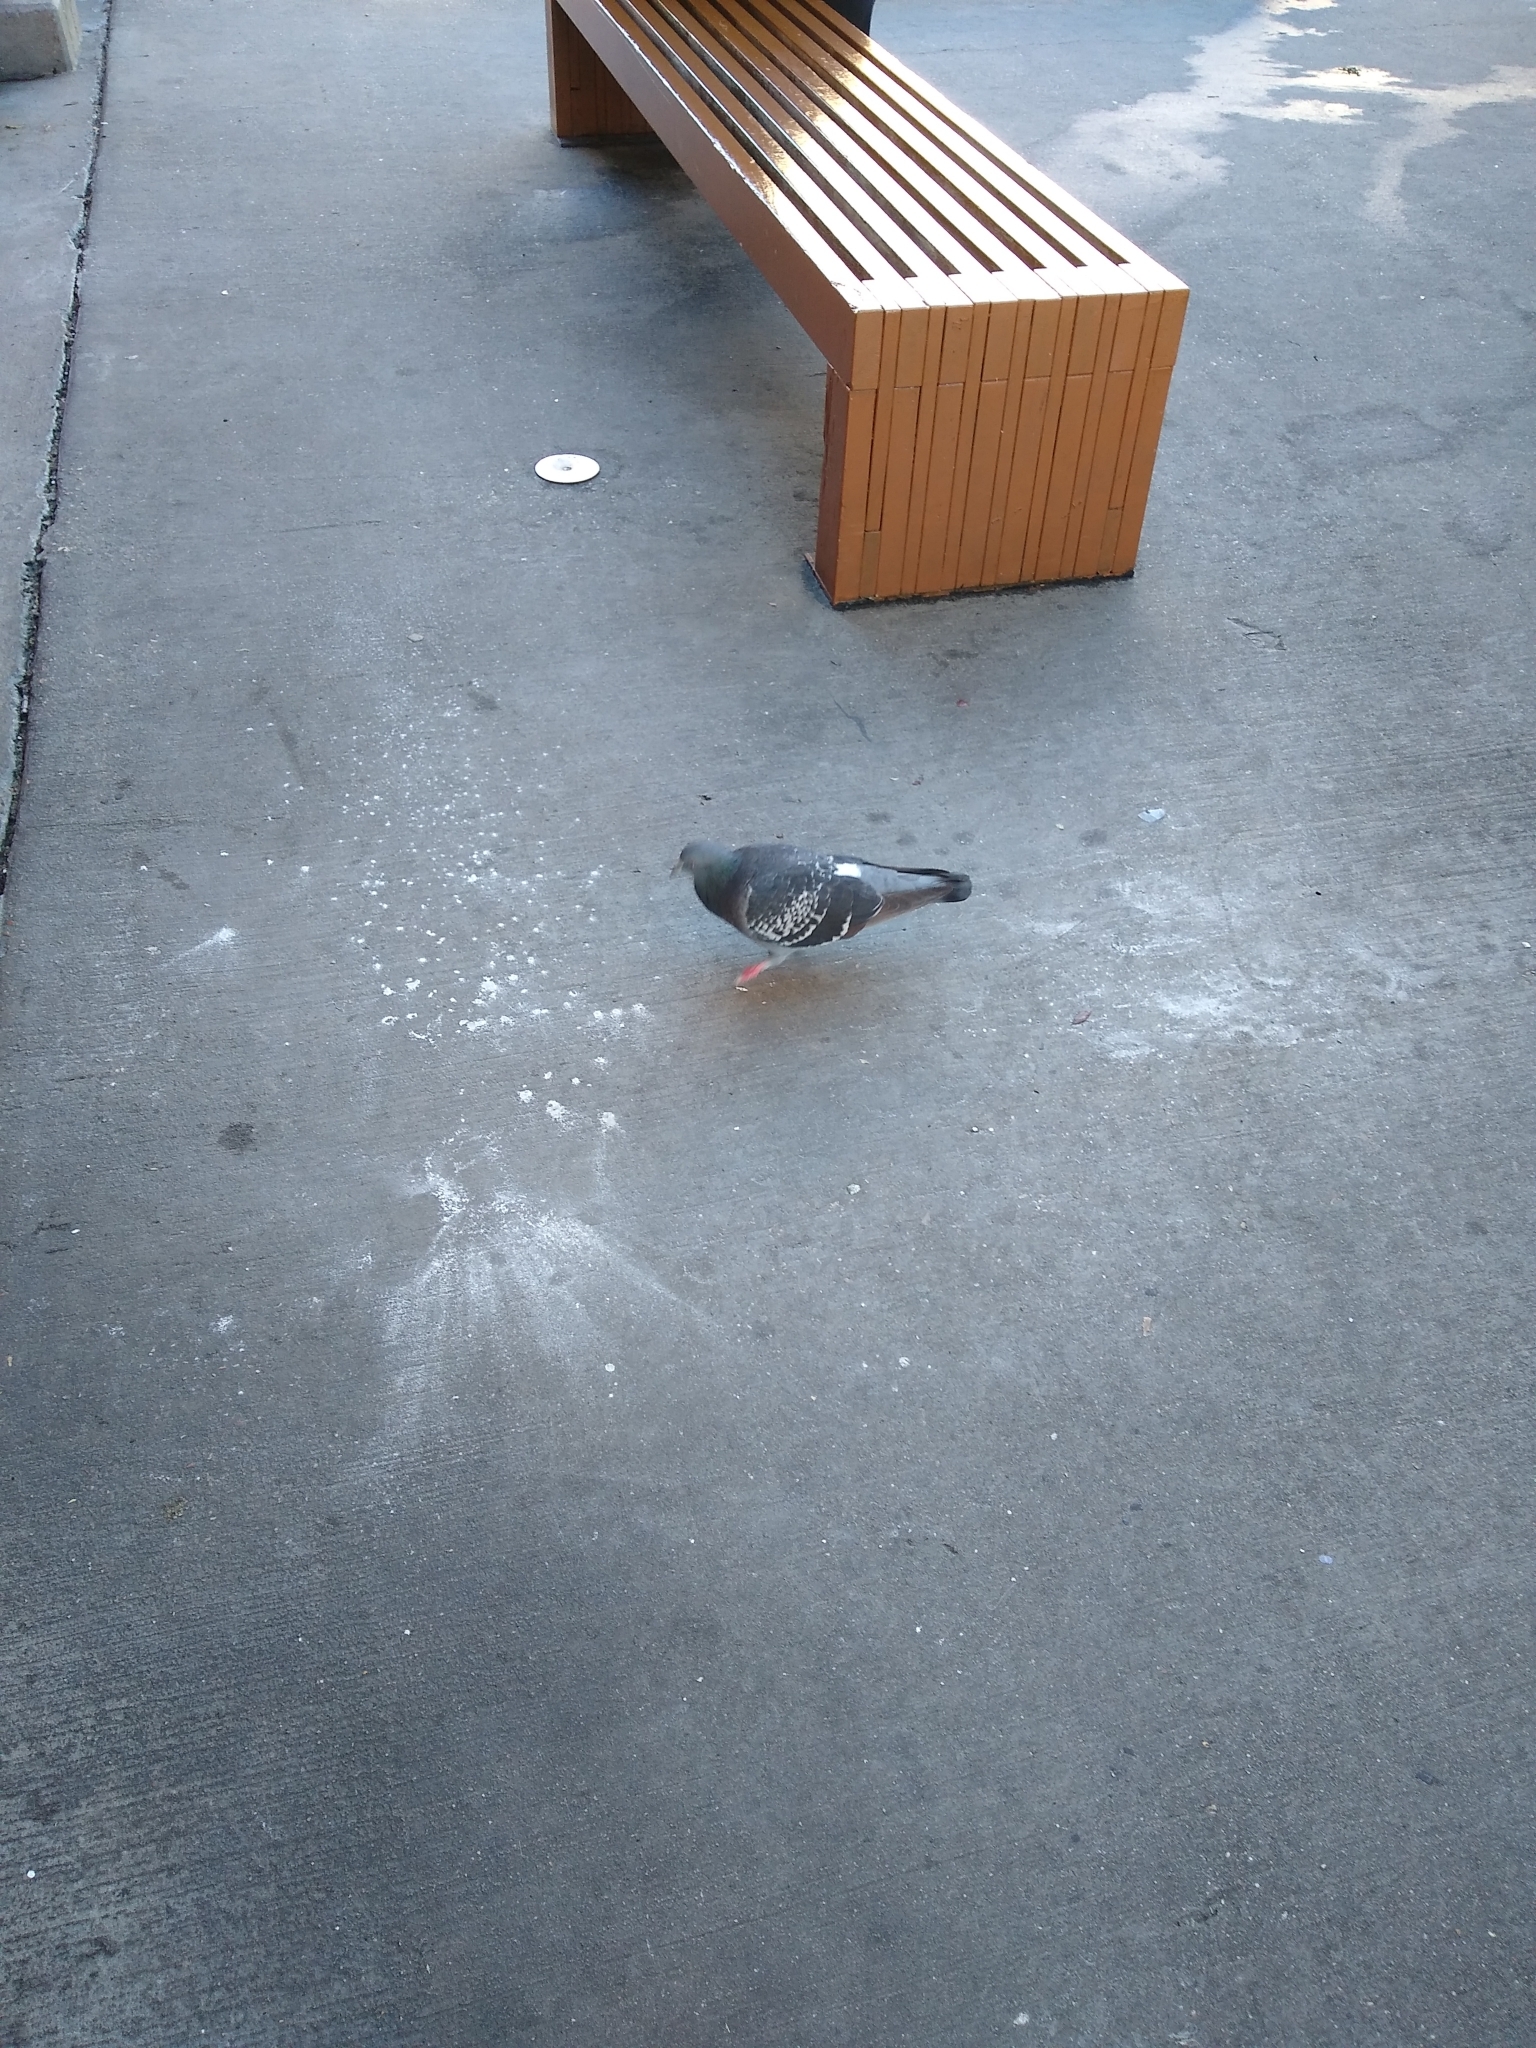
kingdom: Animalia
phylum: Chordata
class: Aves
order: Columbiformes
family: Columbidae
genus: Columba
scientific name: Columba livia
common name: Rock pigeon
